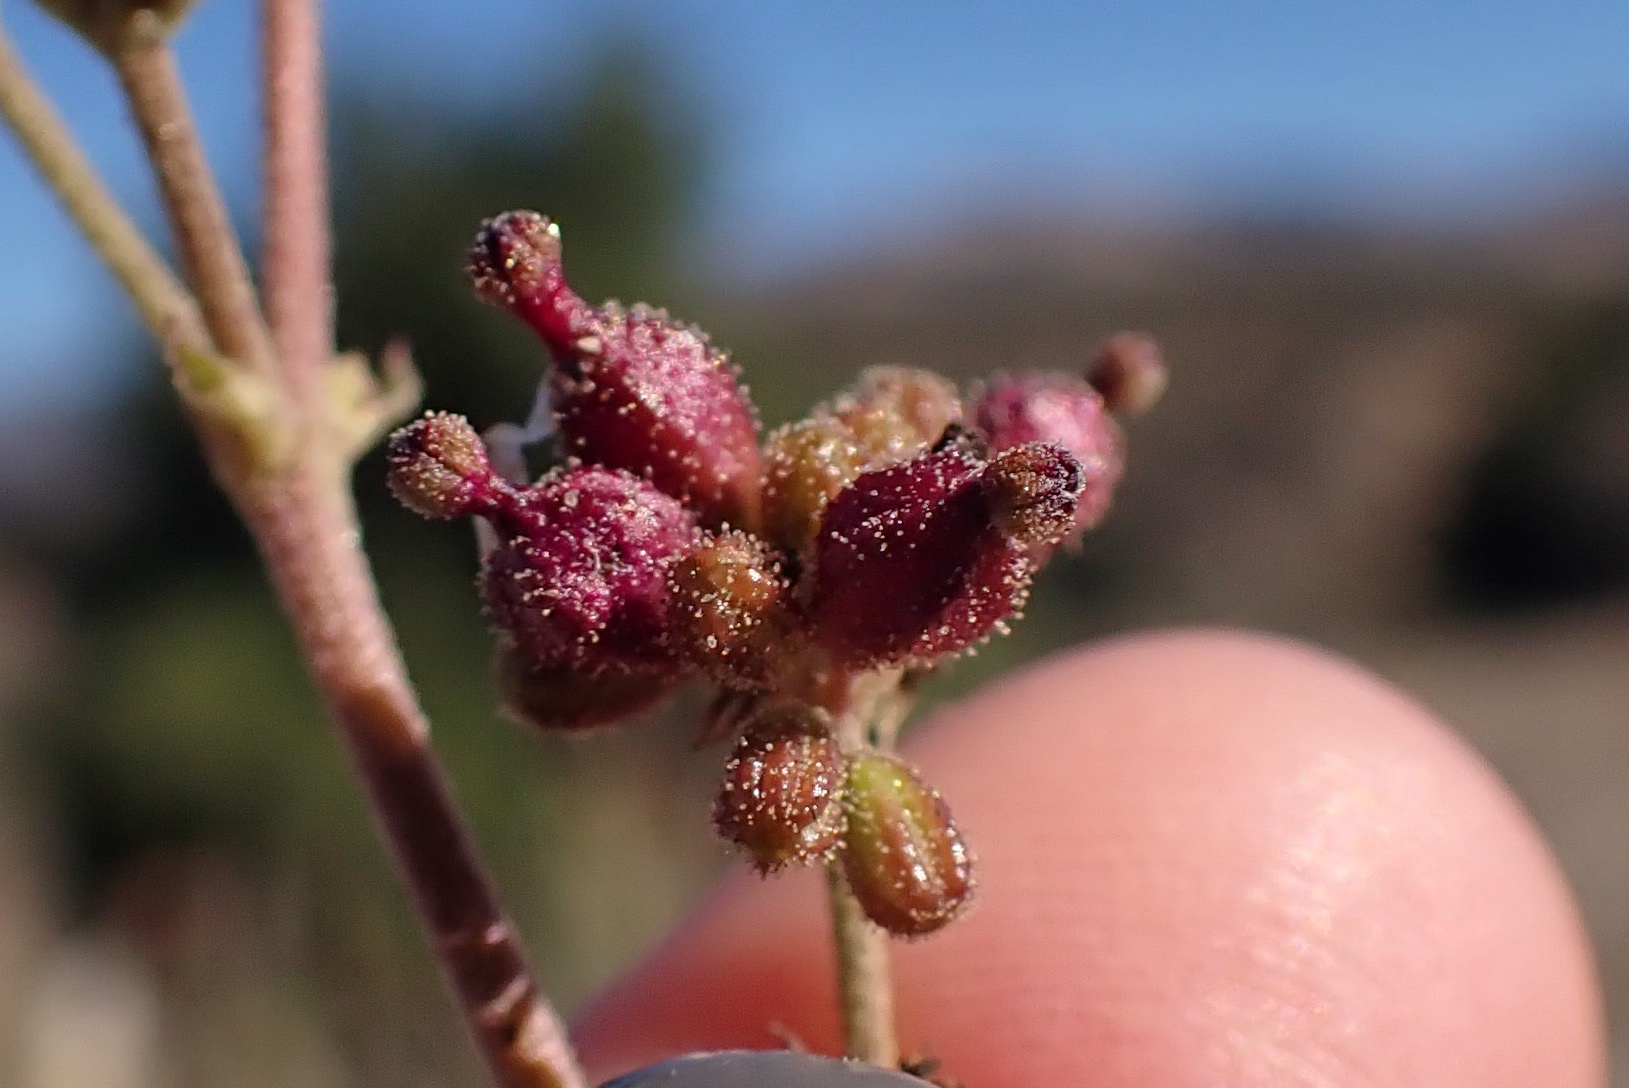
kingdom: Plantae
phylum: Tracheophyta
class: Magnoliopsida
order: Caryophyllales
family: Nyctaginaceae
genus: Boerhavia
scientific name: Boerhavia coccinea
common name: Scarlet spiderling
